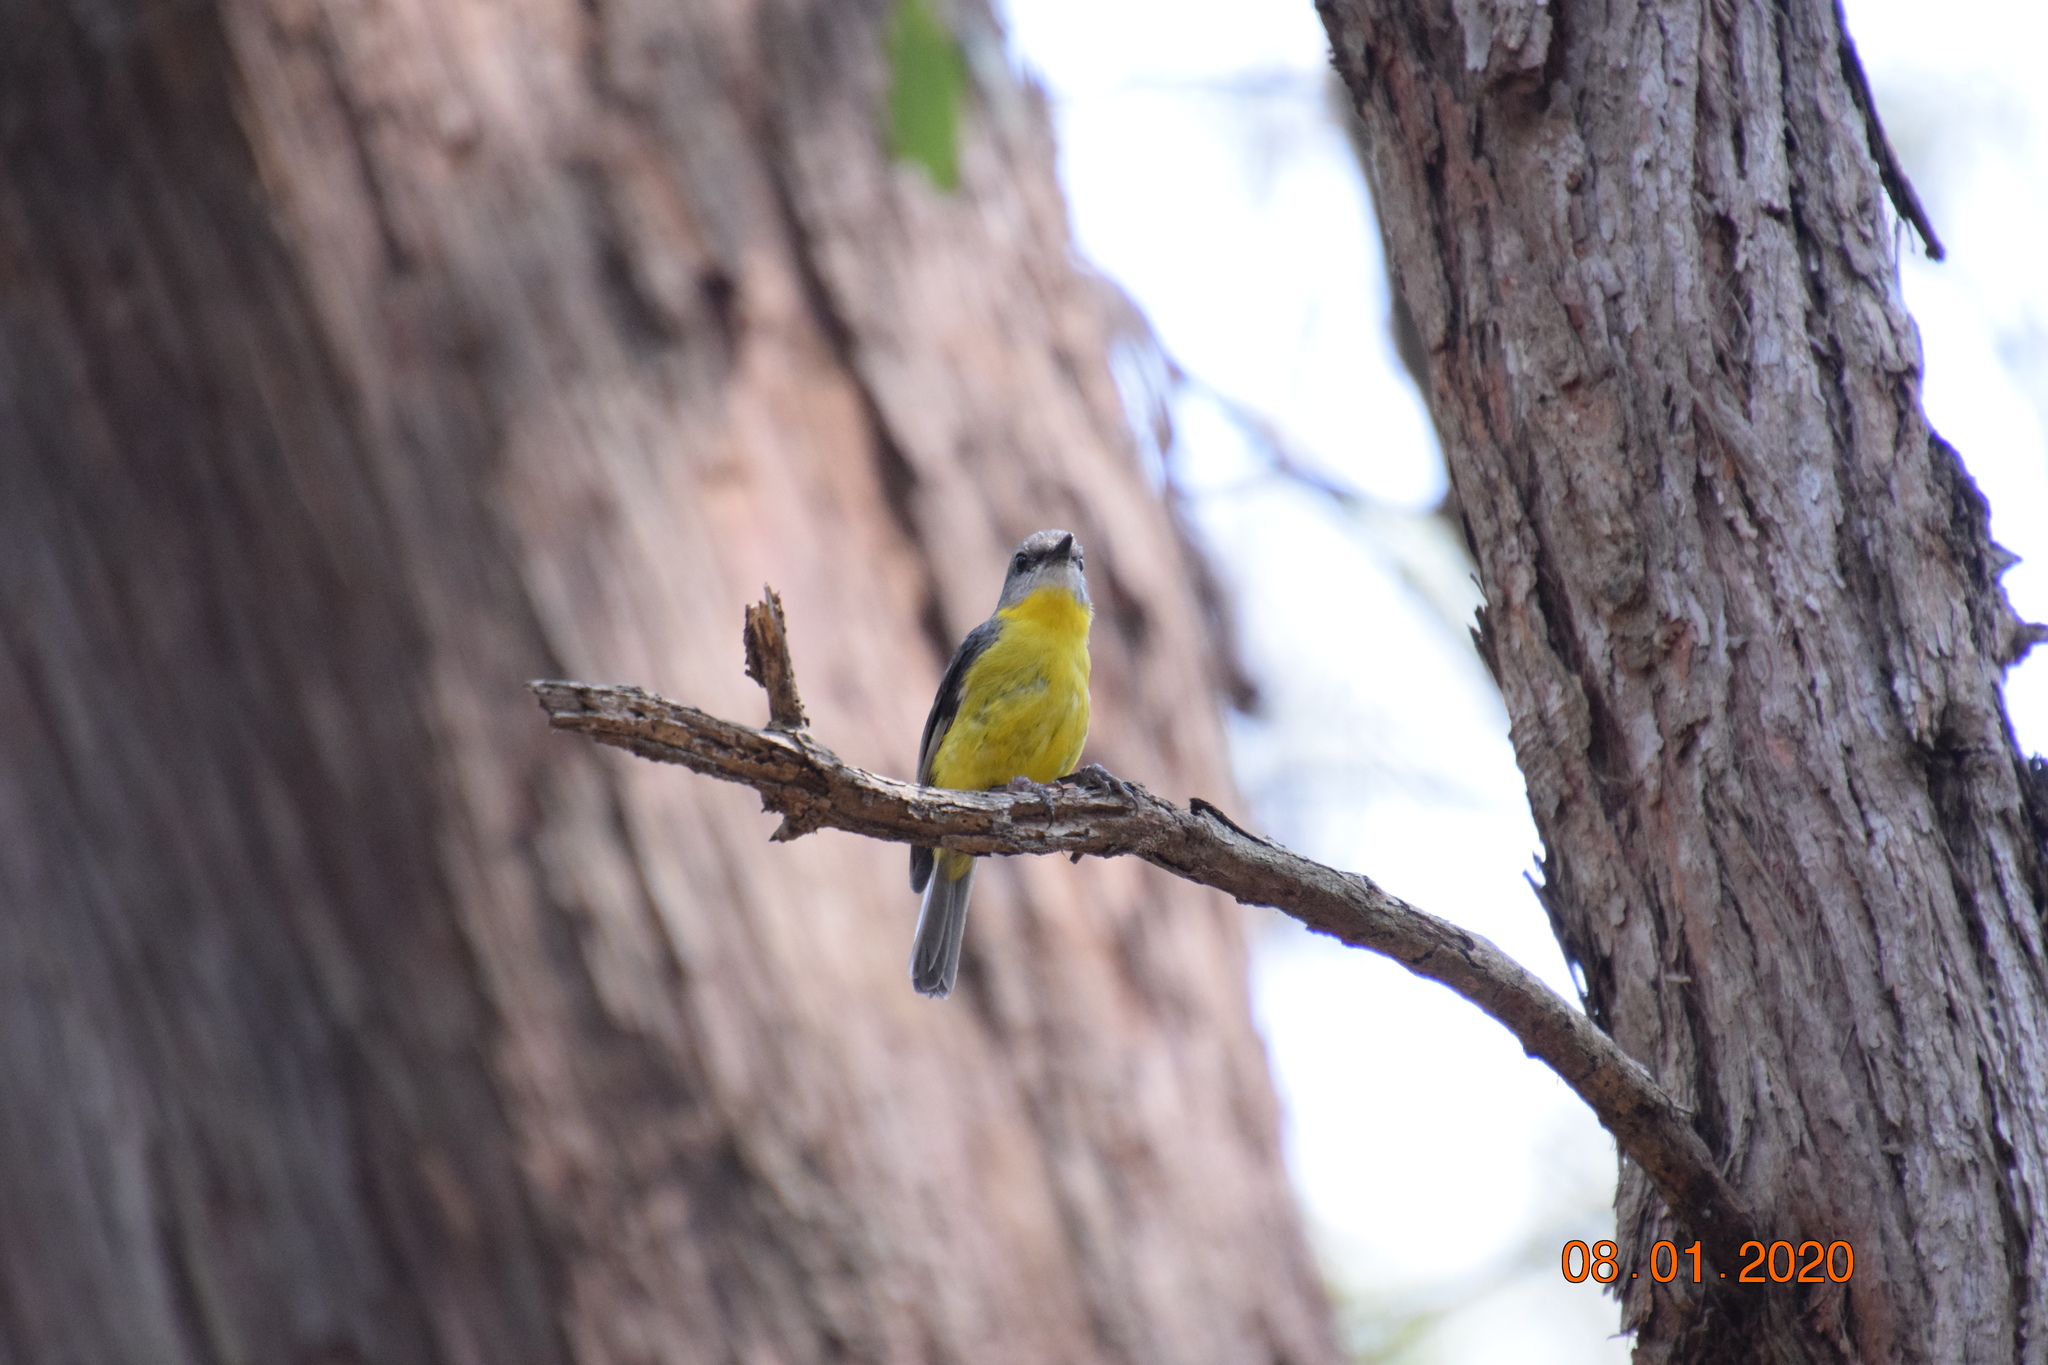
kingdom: Animalia
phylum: Chordata
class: Aves
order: Passeriformes
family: Petroicidae
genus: Eopsaltria
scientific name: Eopsaltria australis
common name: Eastern yellow robin
